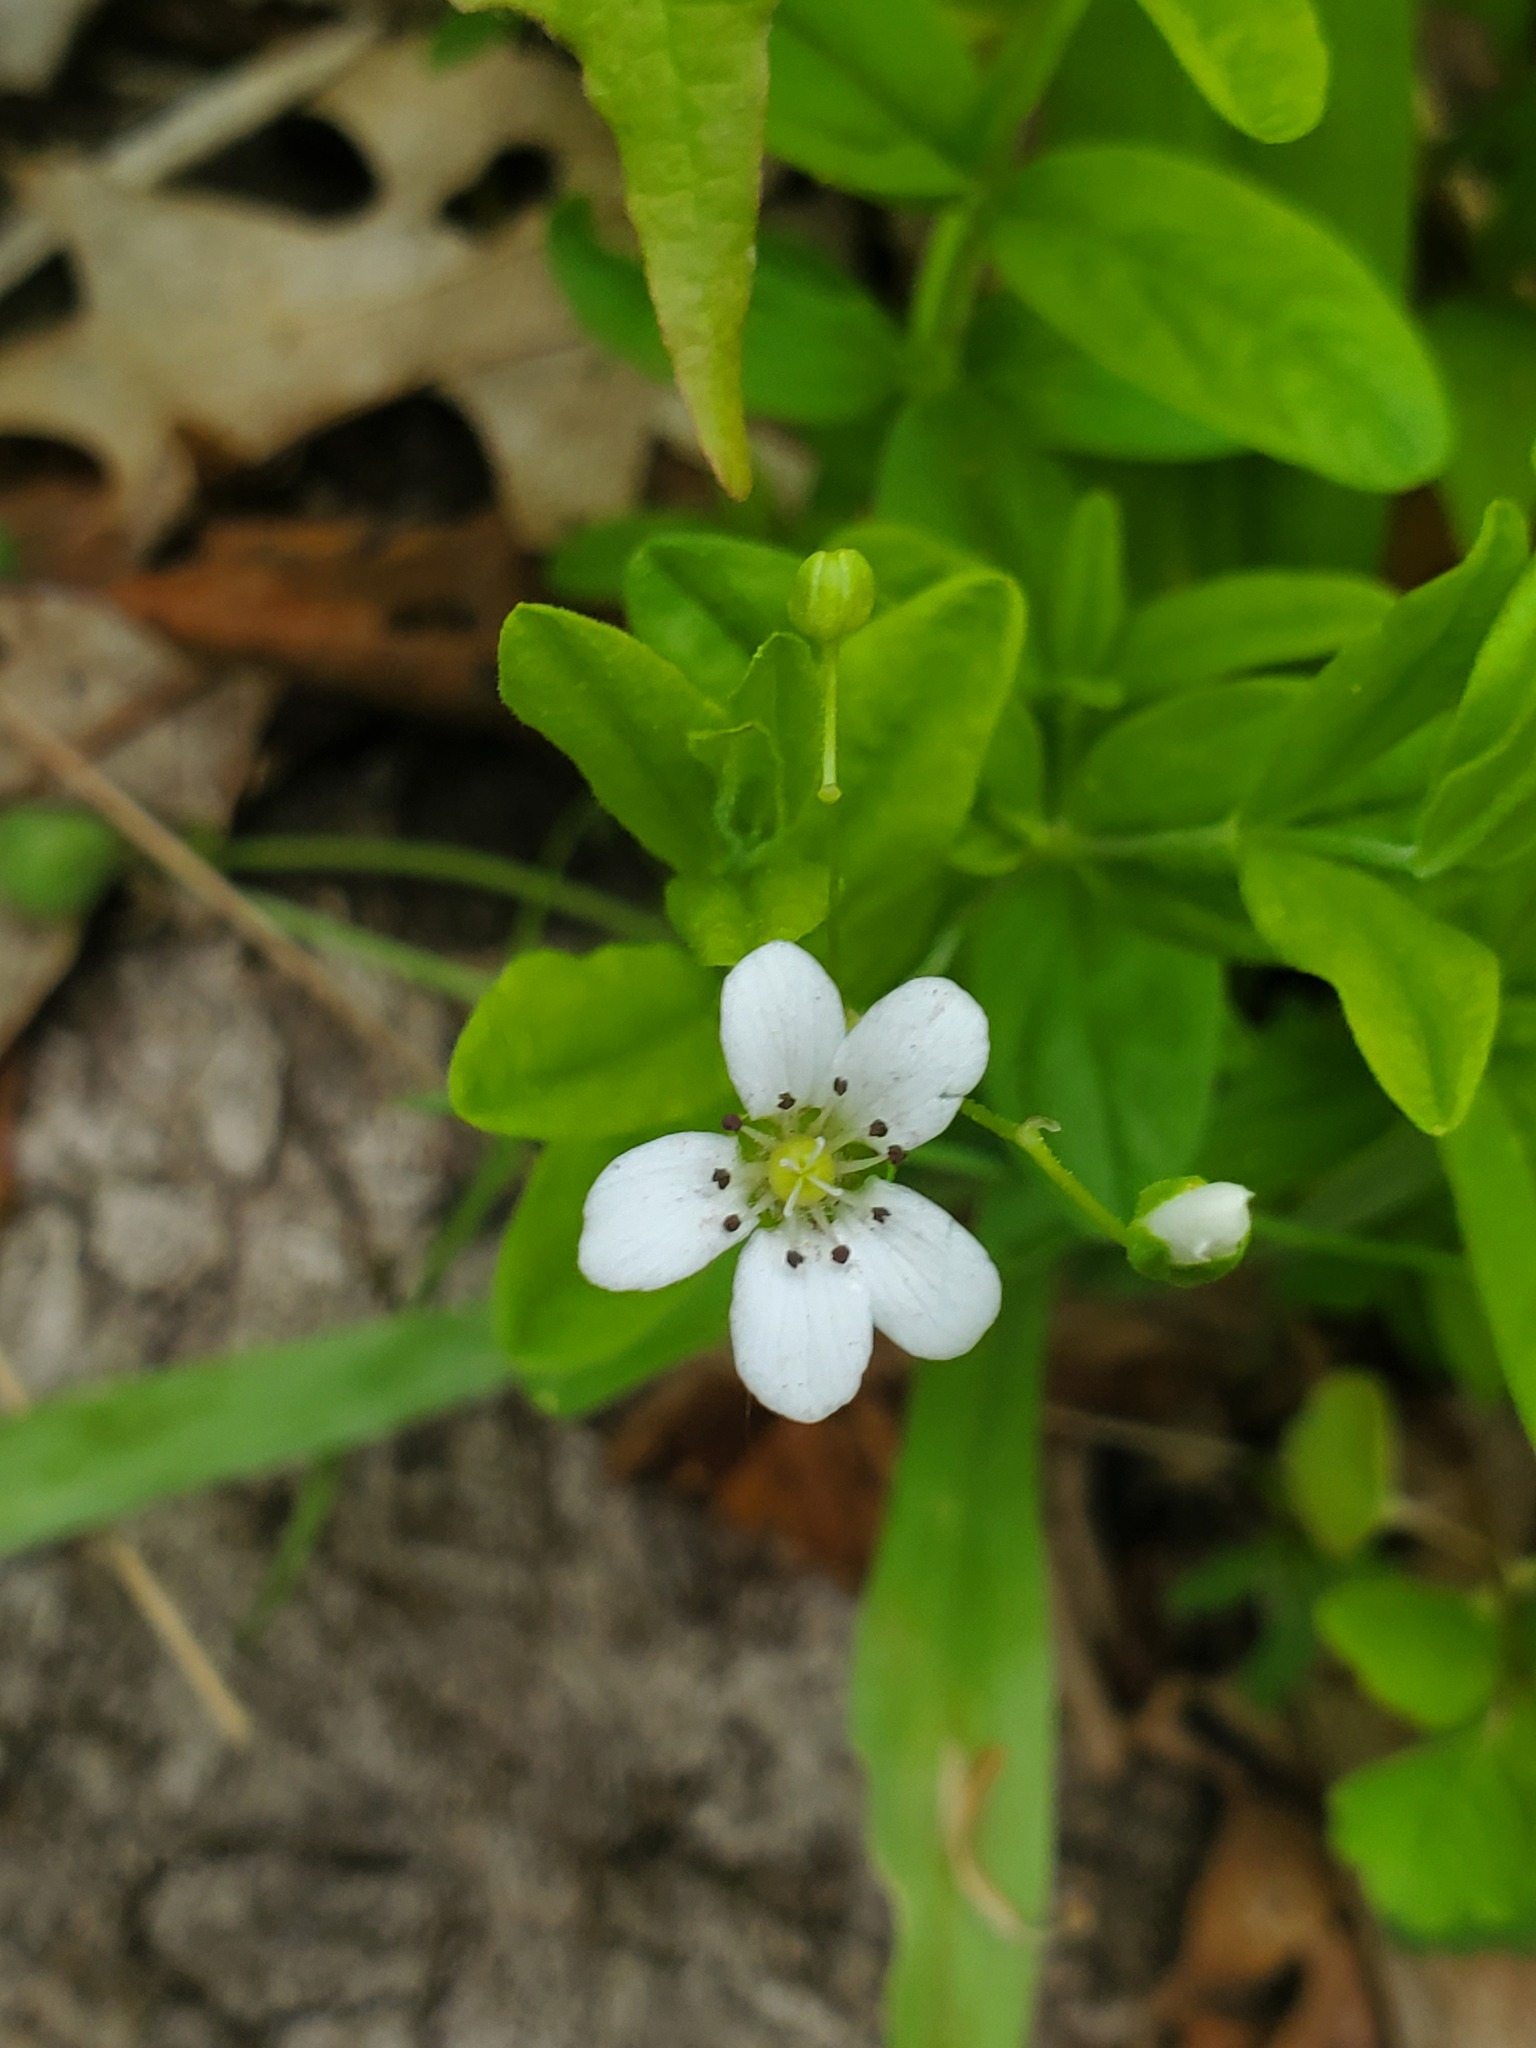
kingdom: Plantae
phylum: Tracheophyta
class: Magnoliopsida
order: Caryophyllales
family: Caryophyllaceae
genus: Moehringia
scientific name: Moehringia lateriflora
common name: Blunt-leaved sandwort
